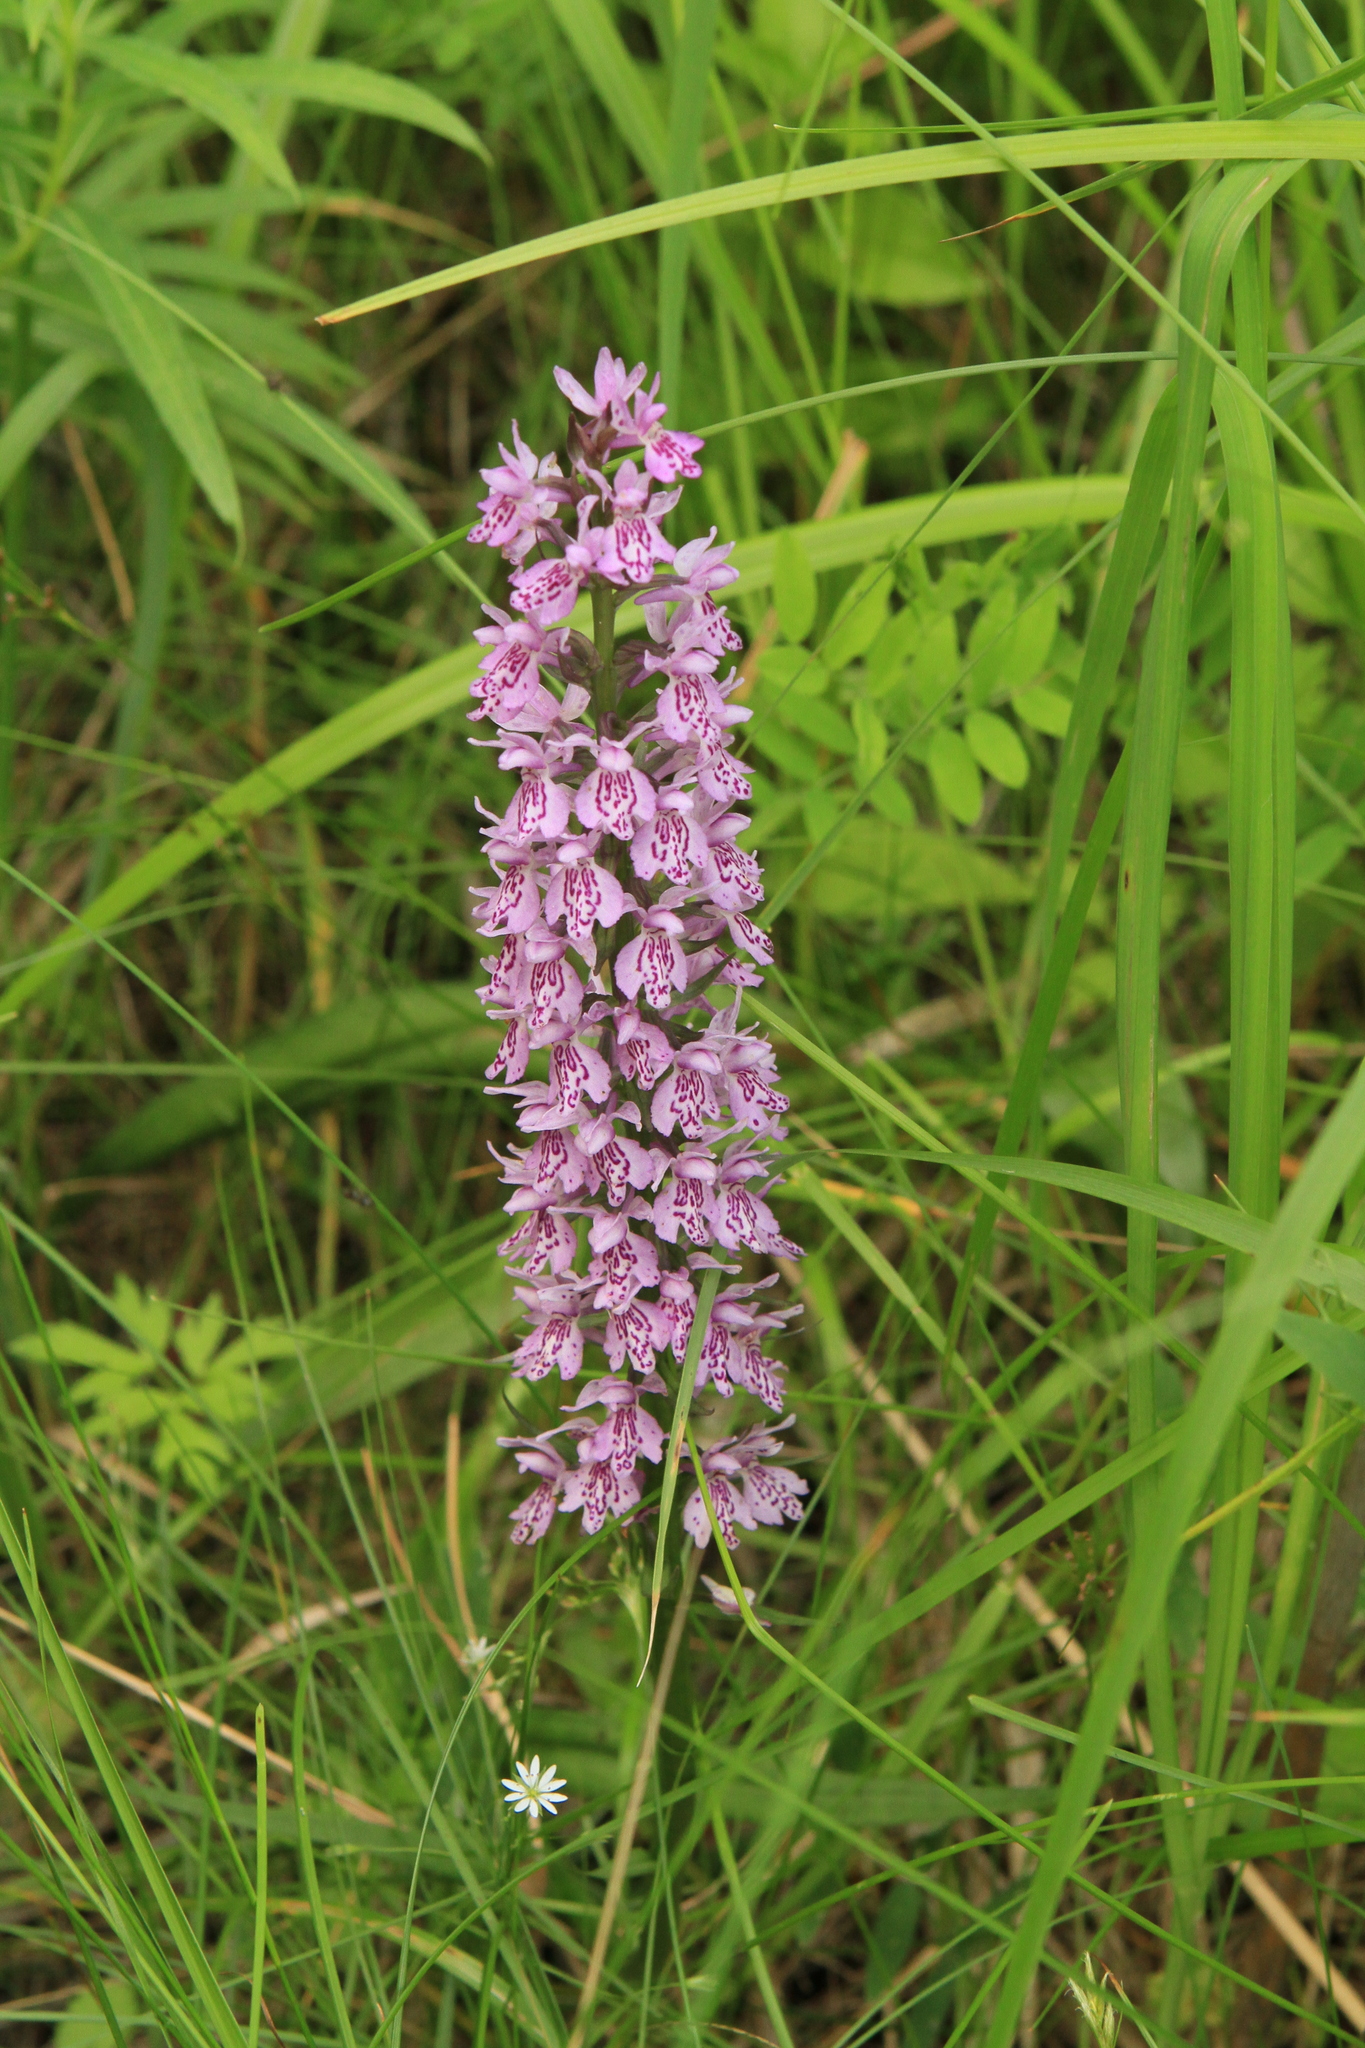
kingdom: Plantae
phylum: Tracheophyta
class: Liliopsida
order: Asparagales
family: Orchidaceae
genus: Dactylorhiza
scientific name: Dactylorhiza maculata
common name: Heath spotted-orchid
